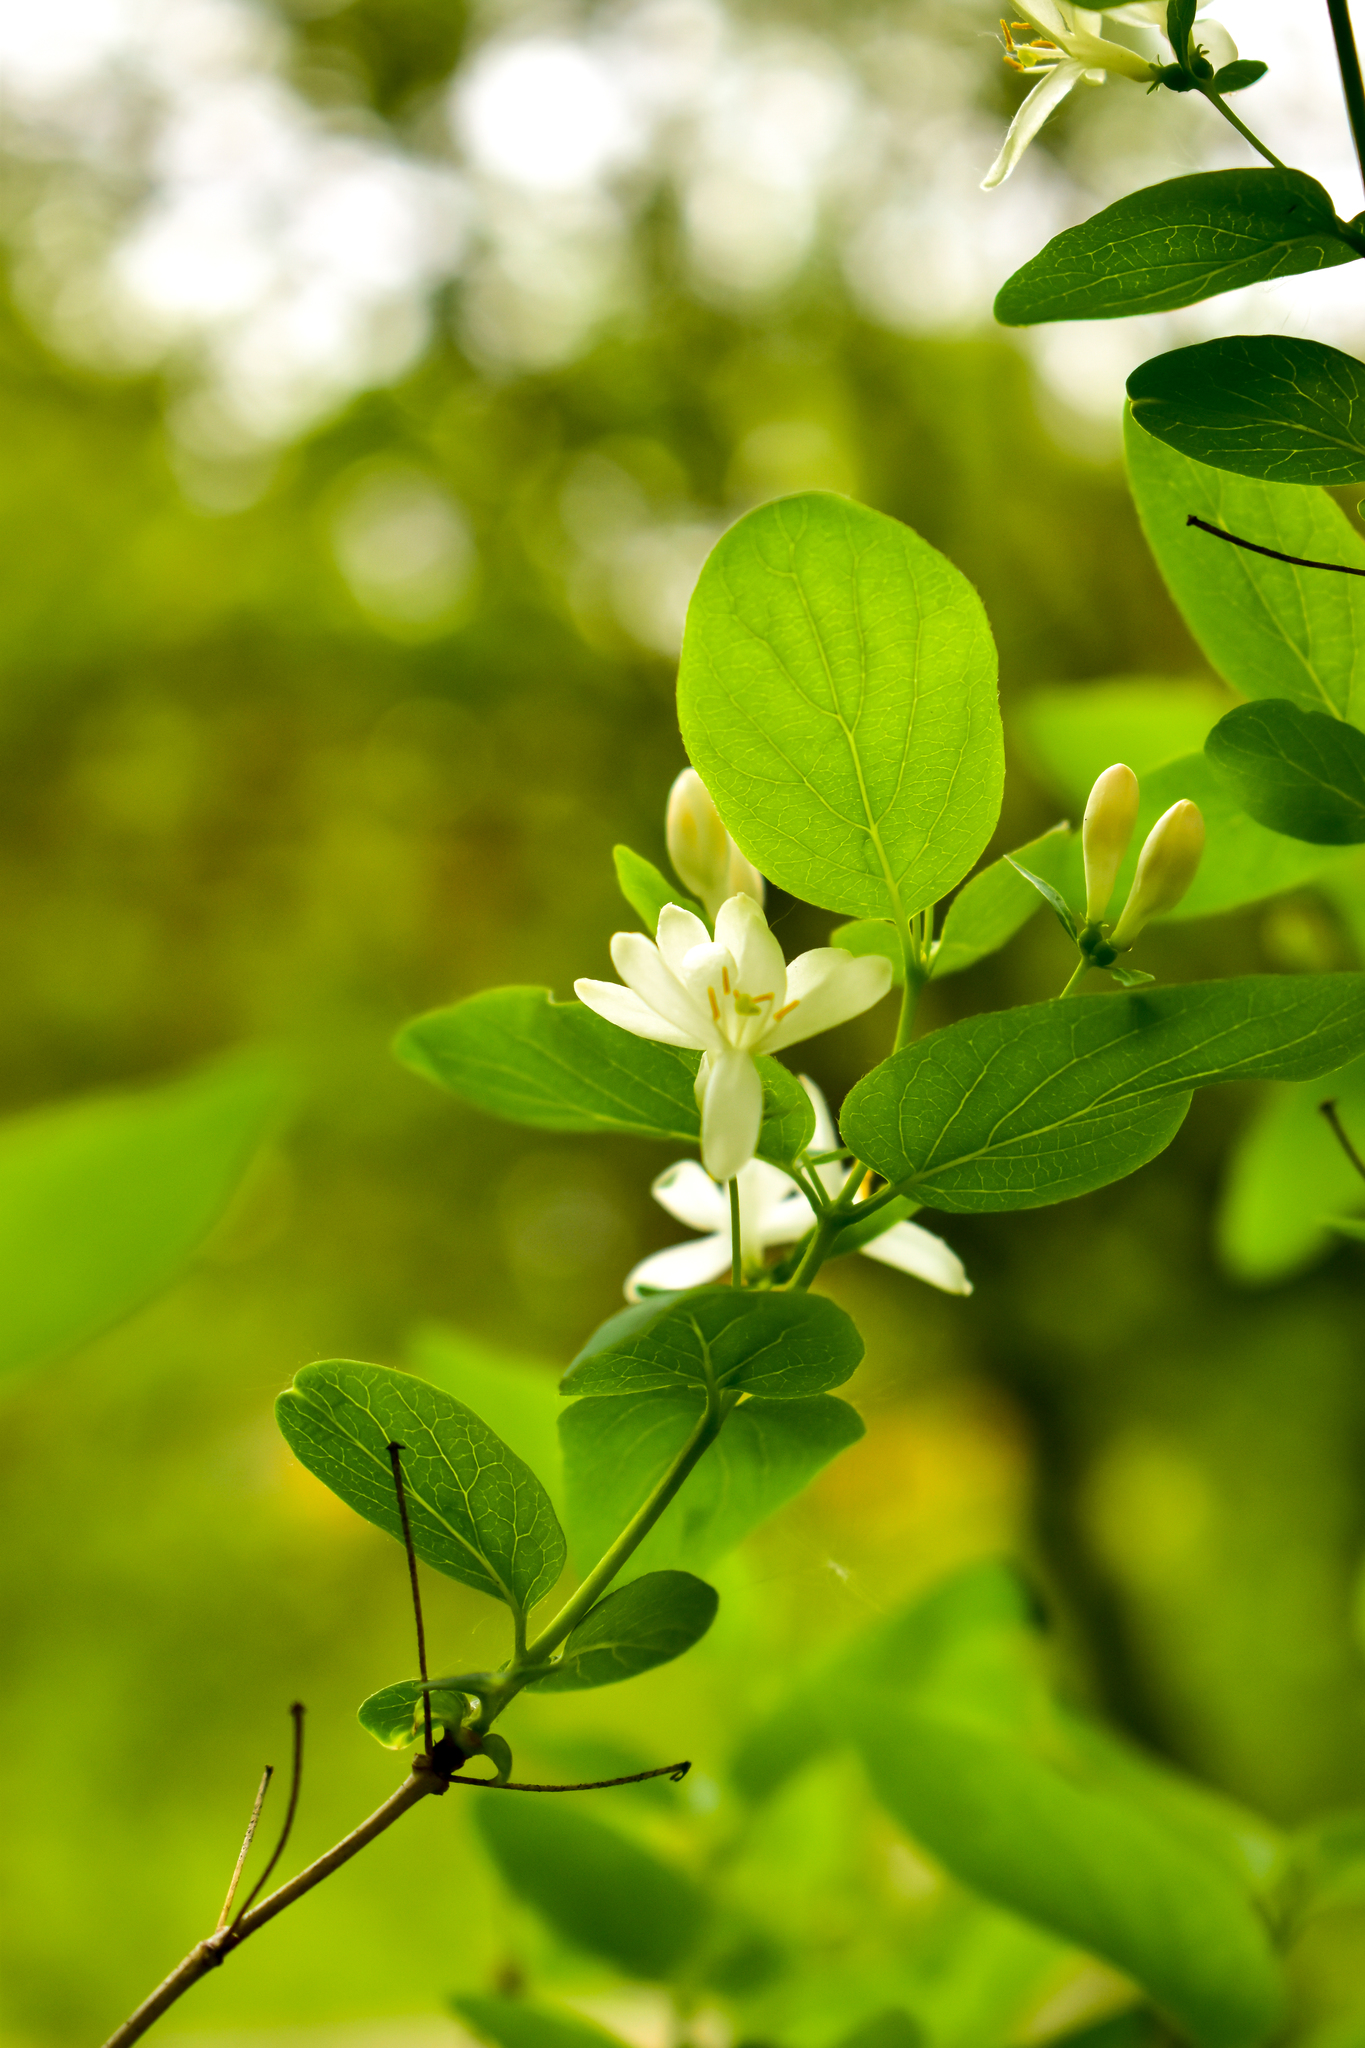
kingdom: Plantae
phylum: Tracheophyta
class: Magnoliopsida
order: Dipsacales
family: Caprifoliaceae
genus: Lonicera
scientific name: Lonicera tatarica
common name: Tatarian honeysuckle
